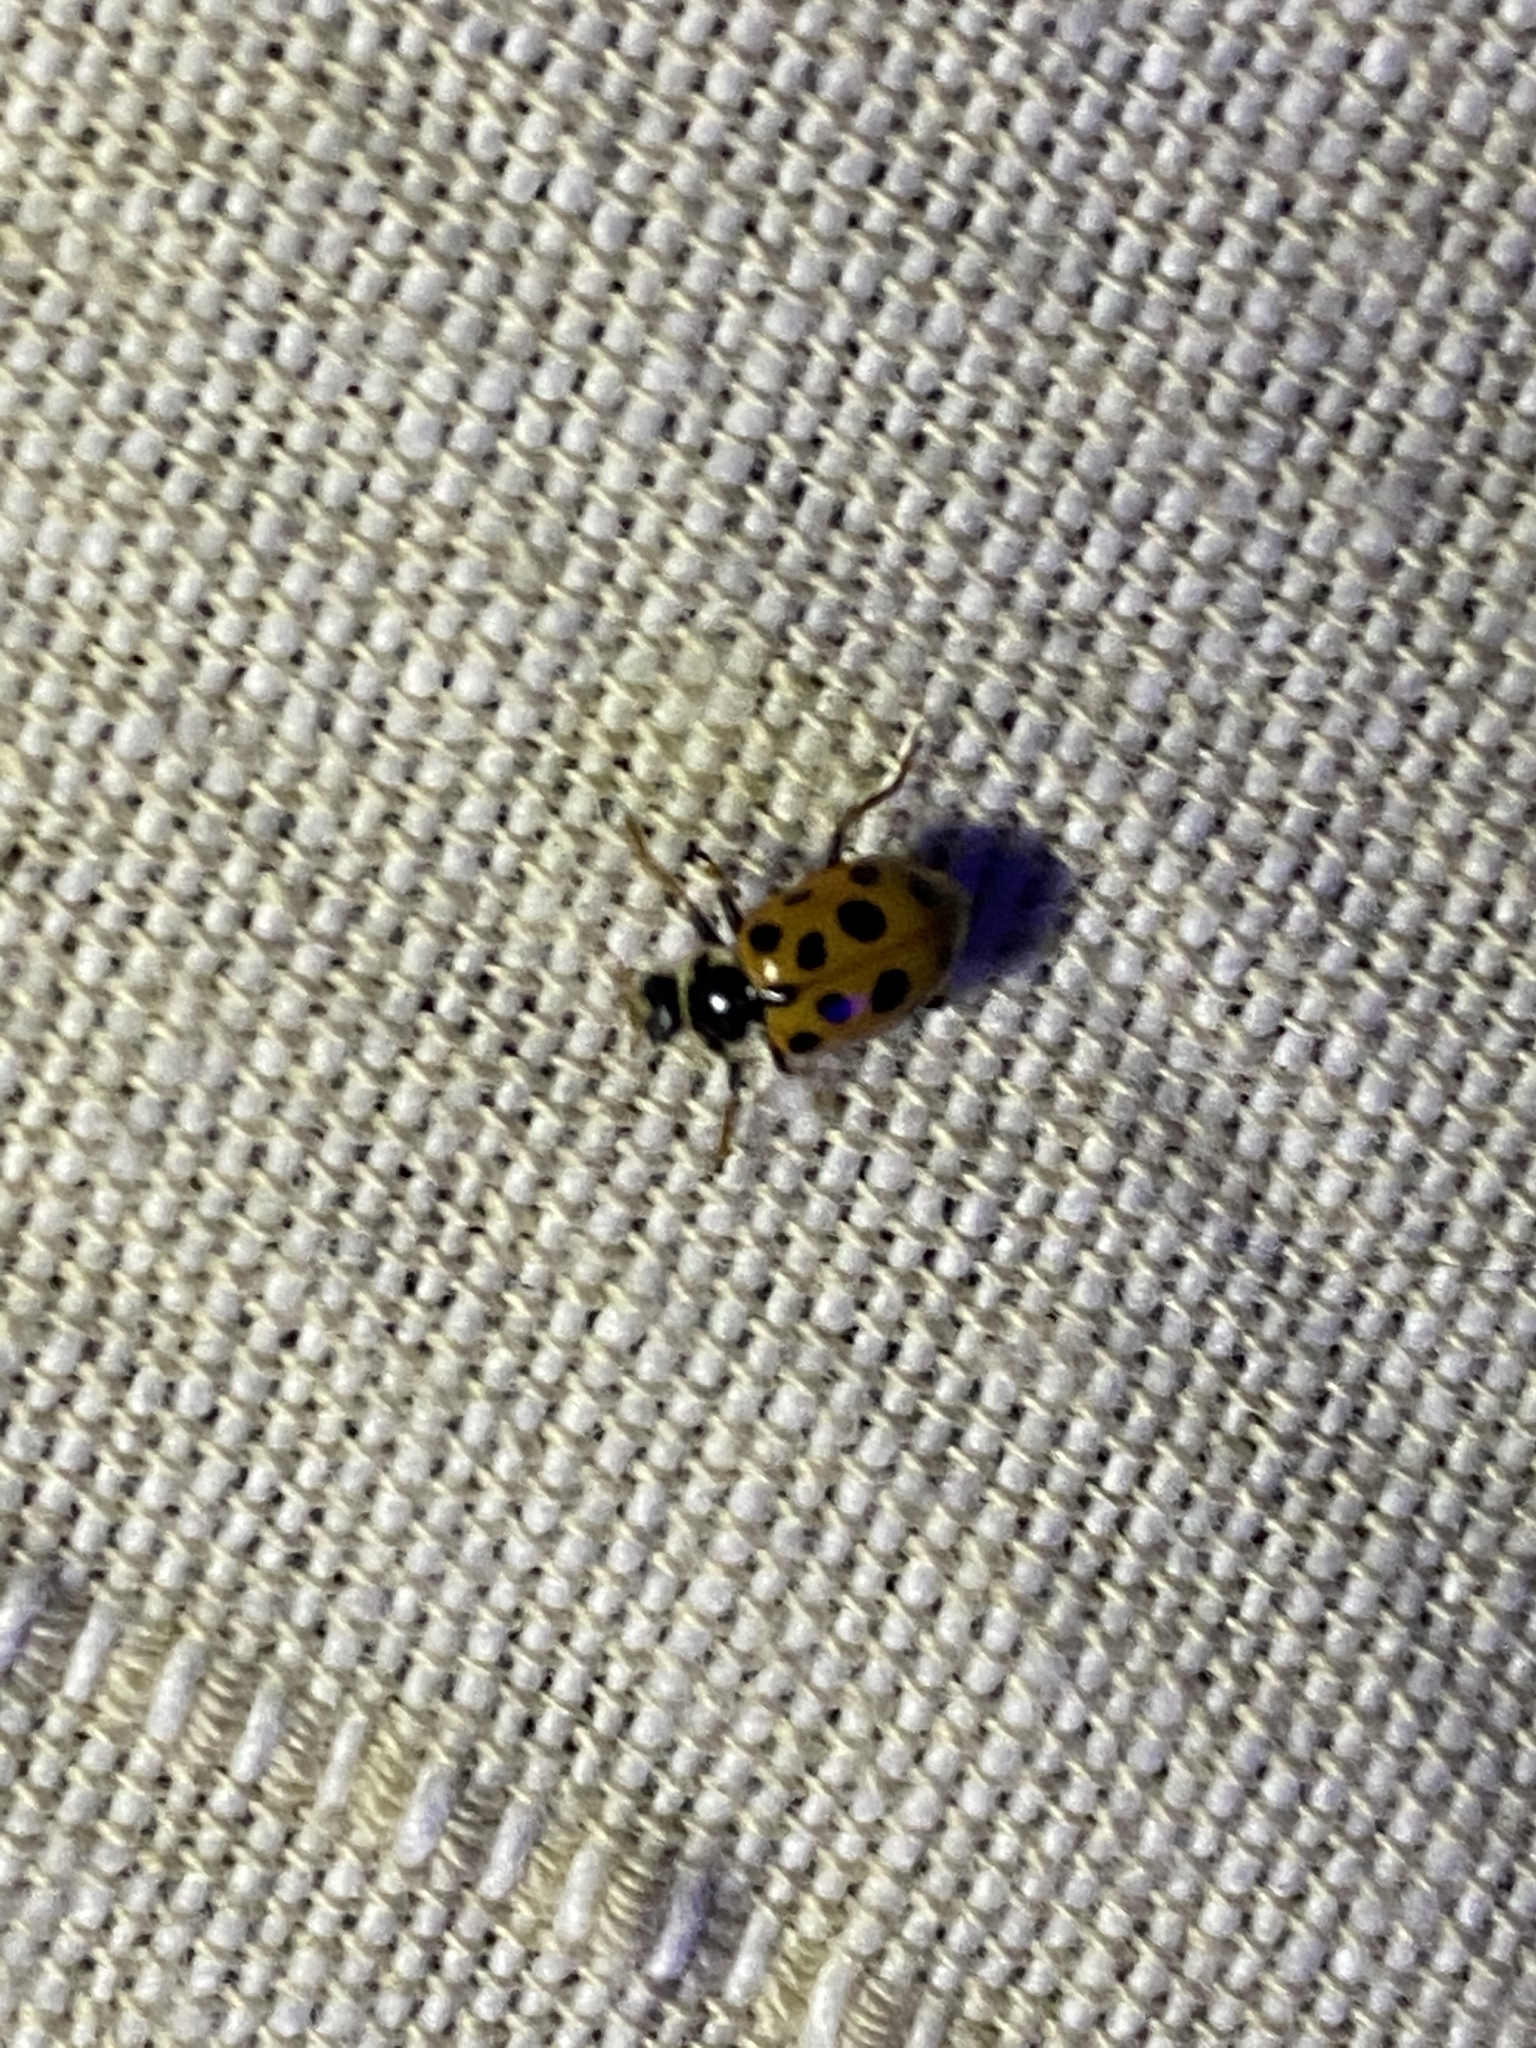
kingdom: Animalia
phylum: Arthropoda
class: Insecta
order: Coleoptera
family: Coccinellidae
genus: Hippodamia
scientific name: Hippodamia tredecimpunctata
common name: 13-spot ladybird
